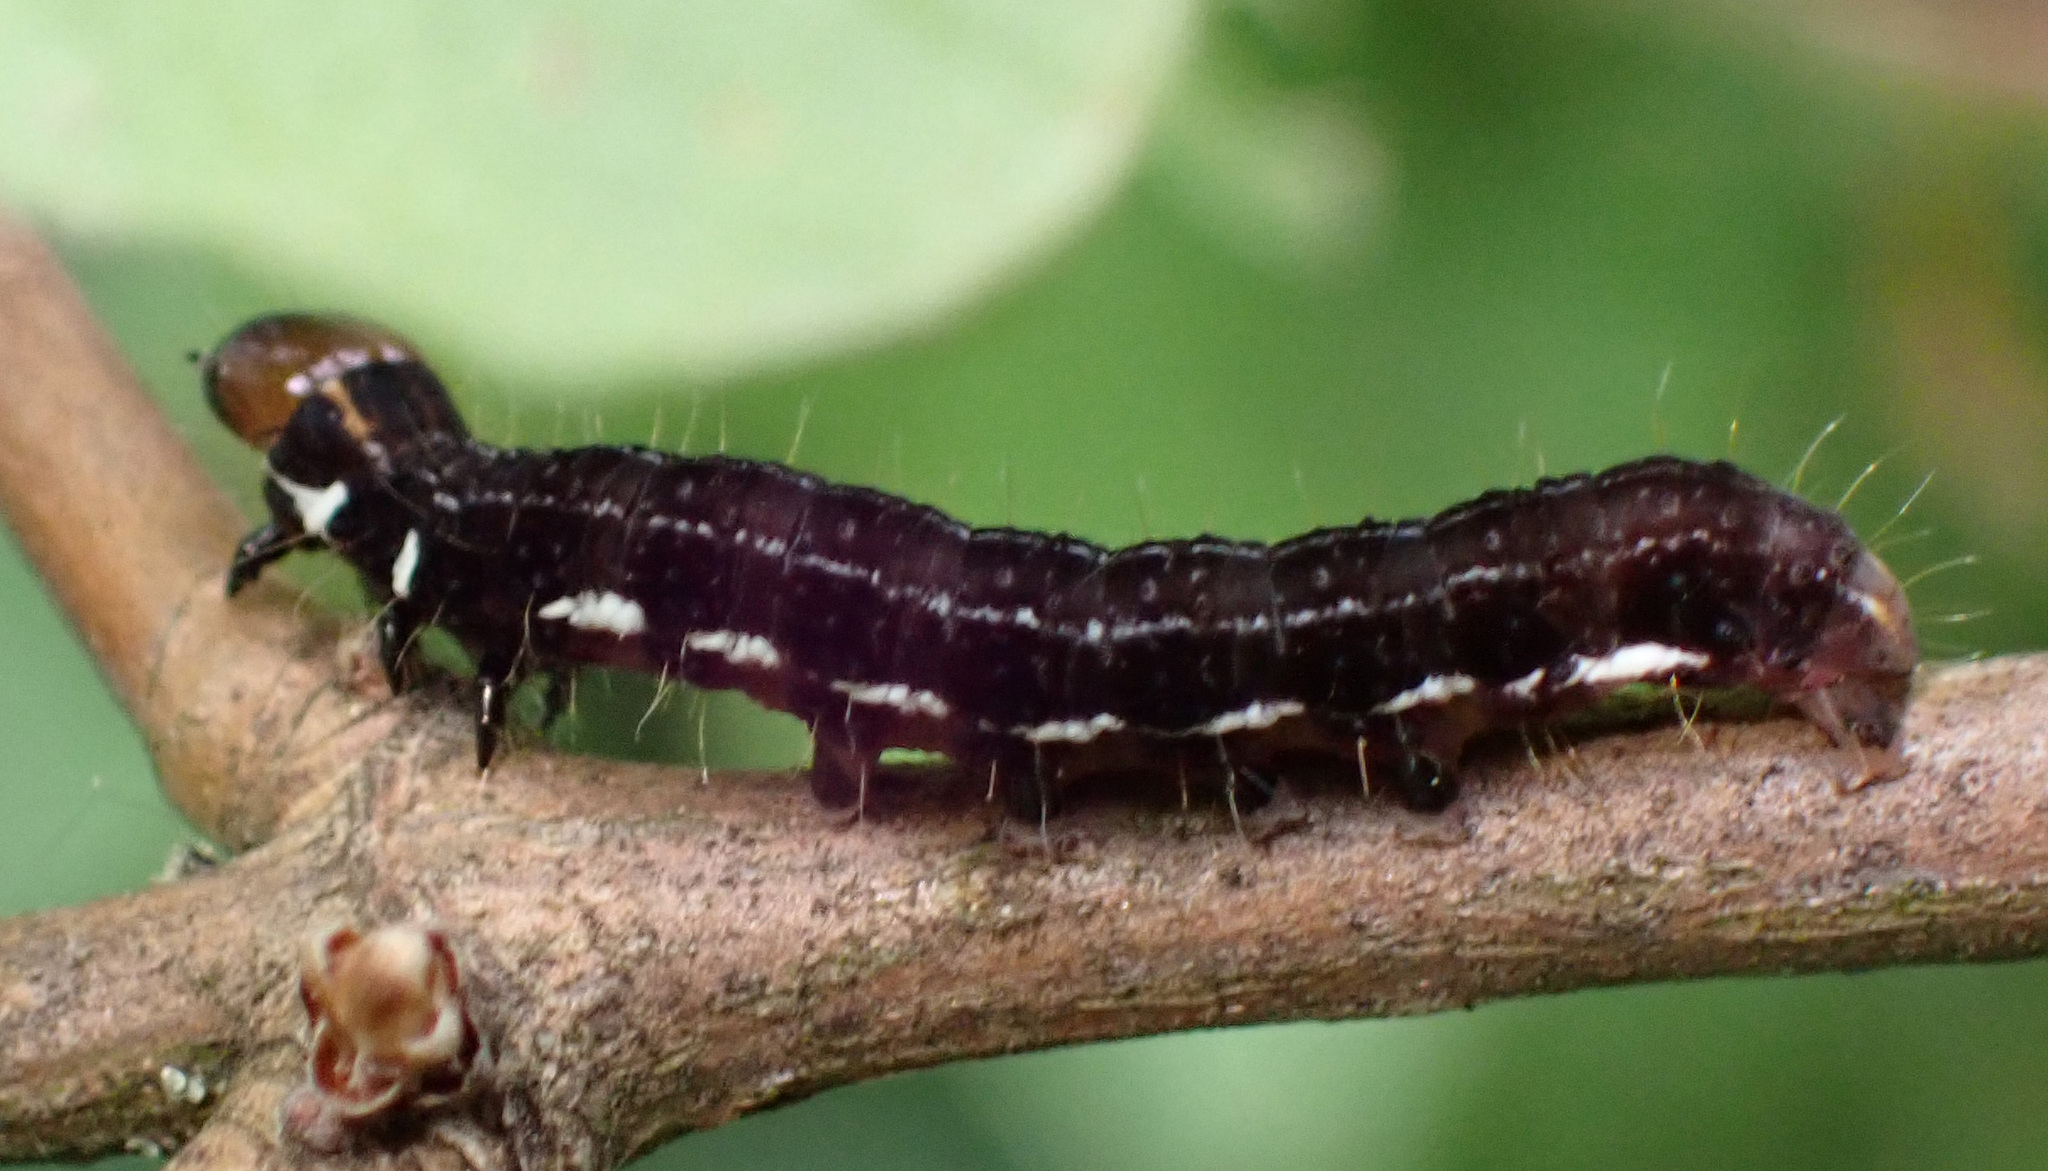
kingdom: Animalia
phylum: Arthropoda
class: Insecta
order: Lepidoptera
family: Noctuidae
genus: Eupsilia
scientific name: Eupsilia transversa
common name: Satellite
